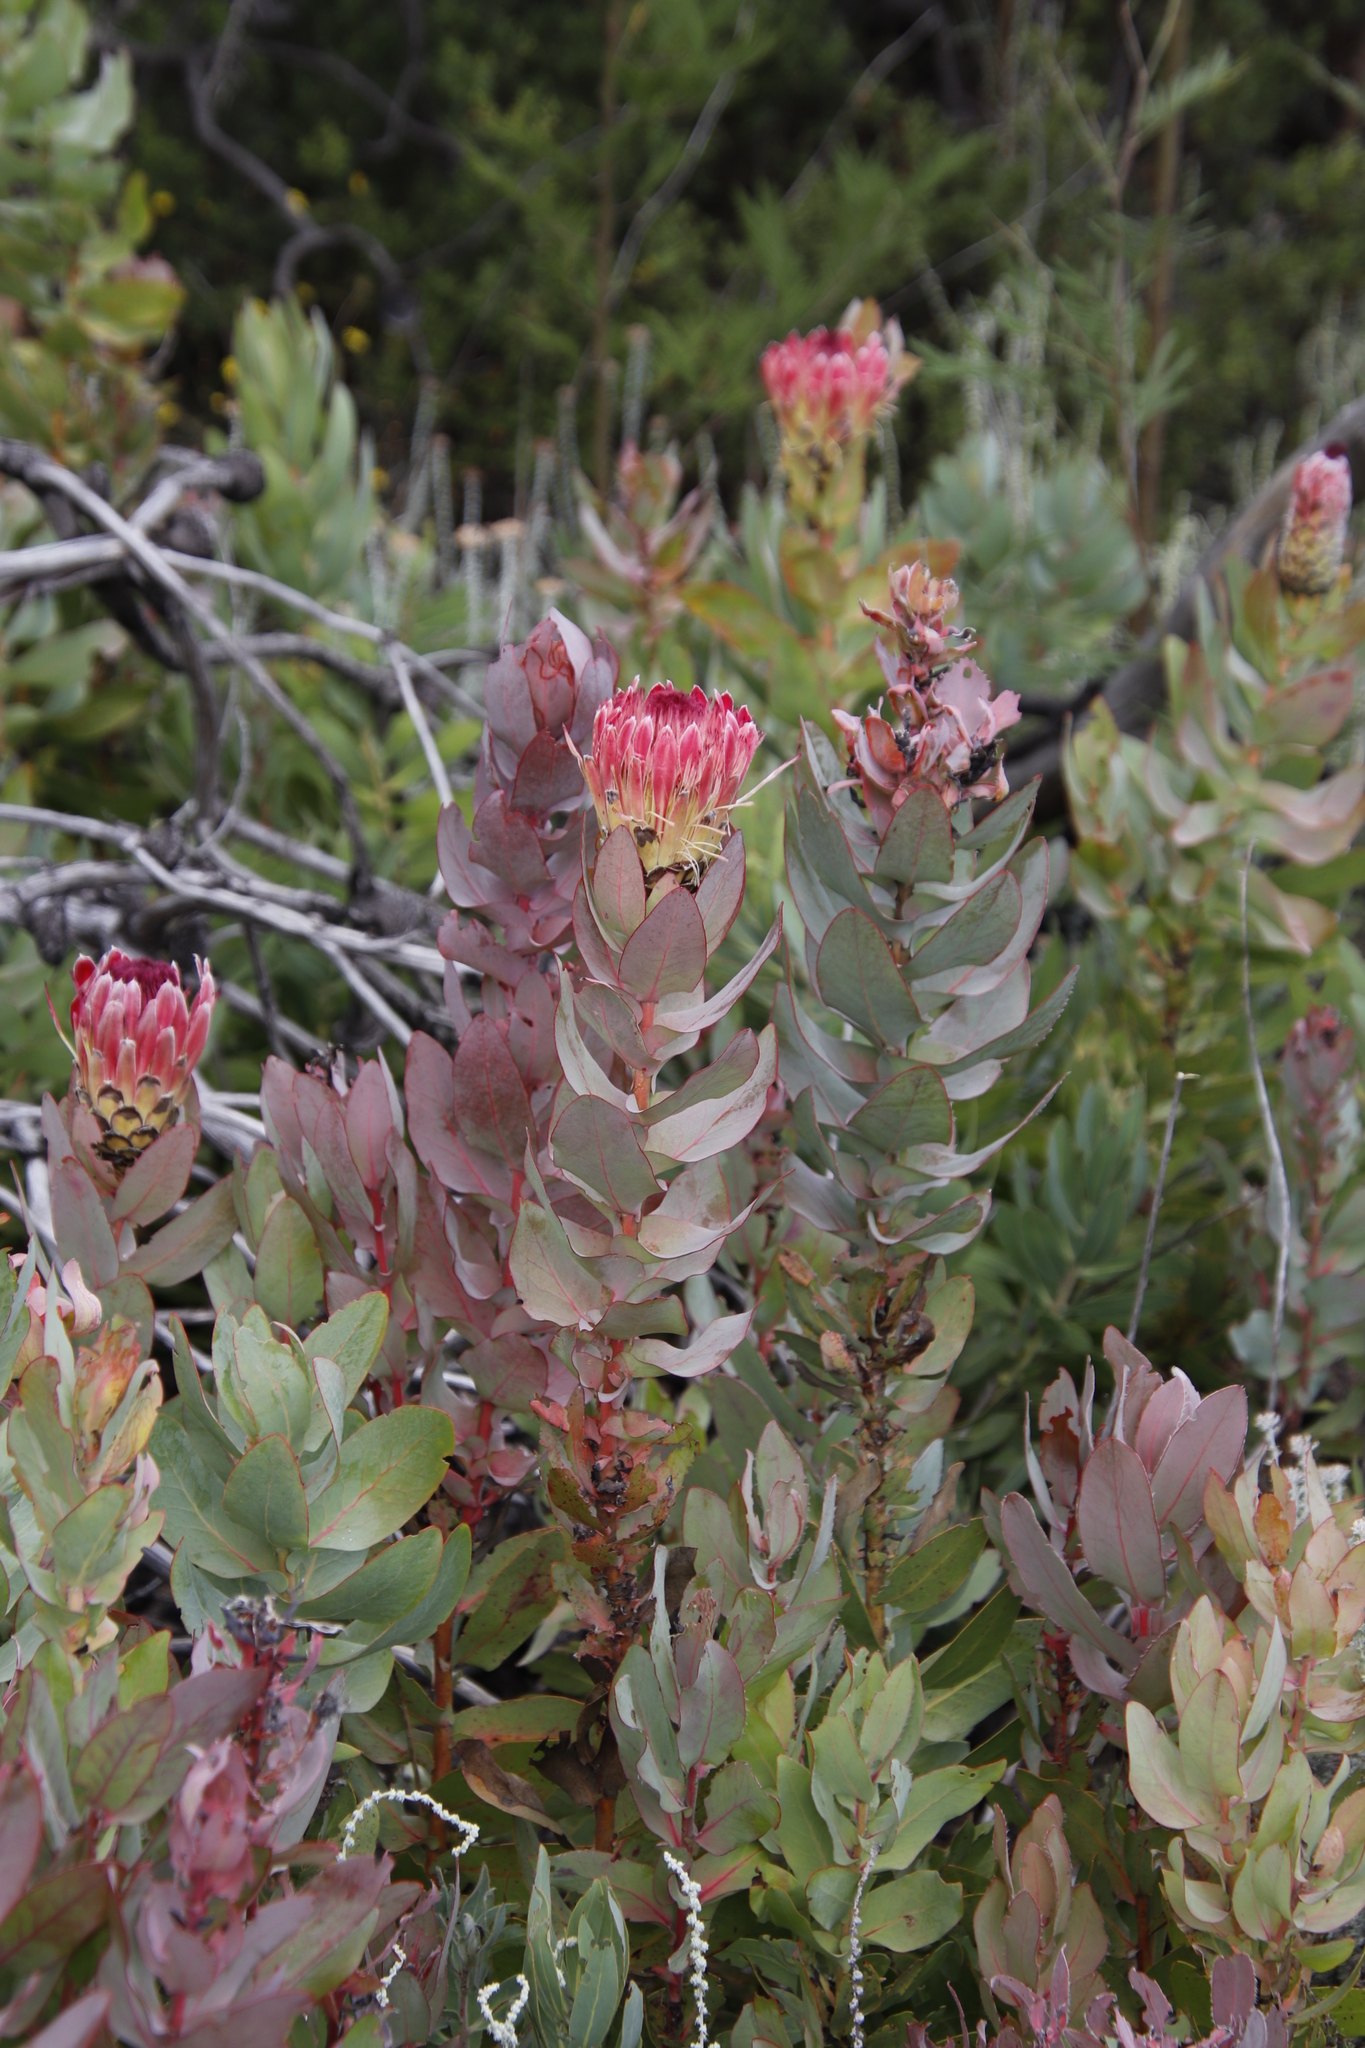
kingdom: Plantae
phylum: Tracheophyta
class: Magnoliopsida
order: Proteales
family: Proteaceae
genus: Protea
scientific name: Protea eximia
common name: Broad-leaved sugarbush
